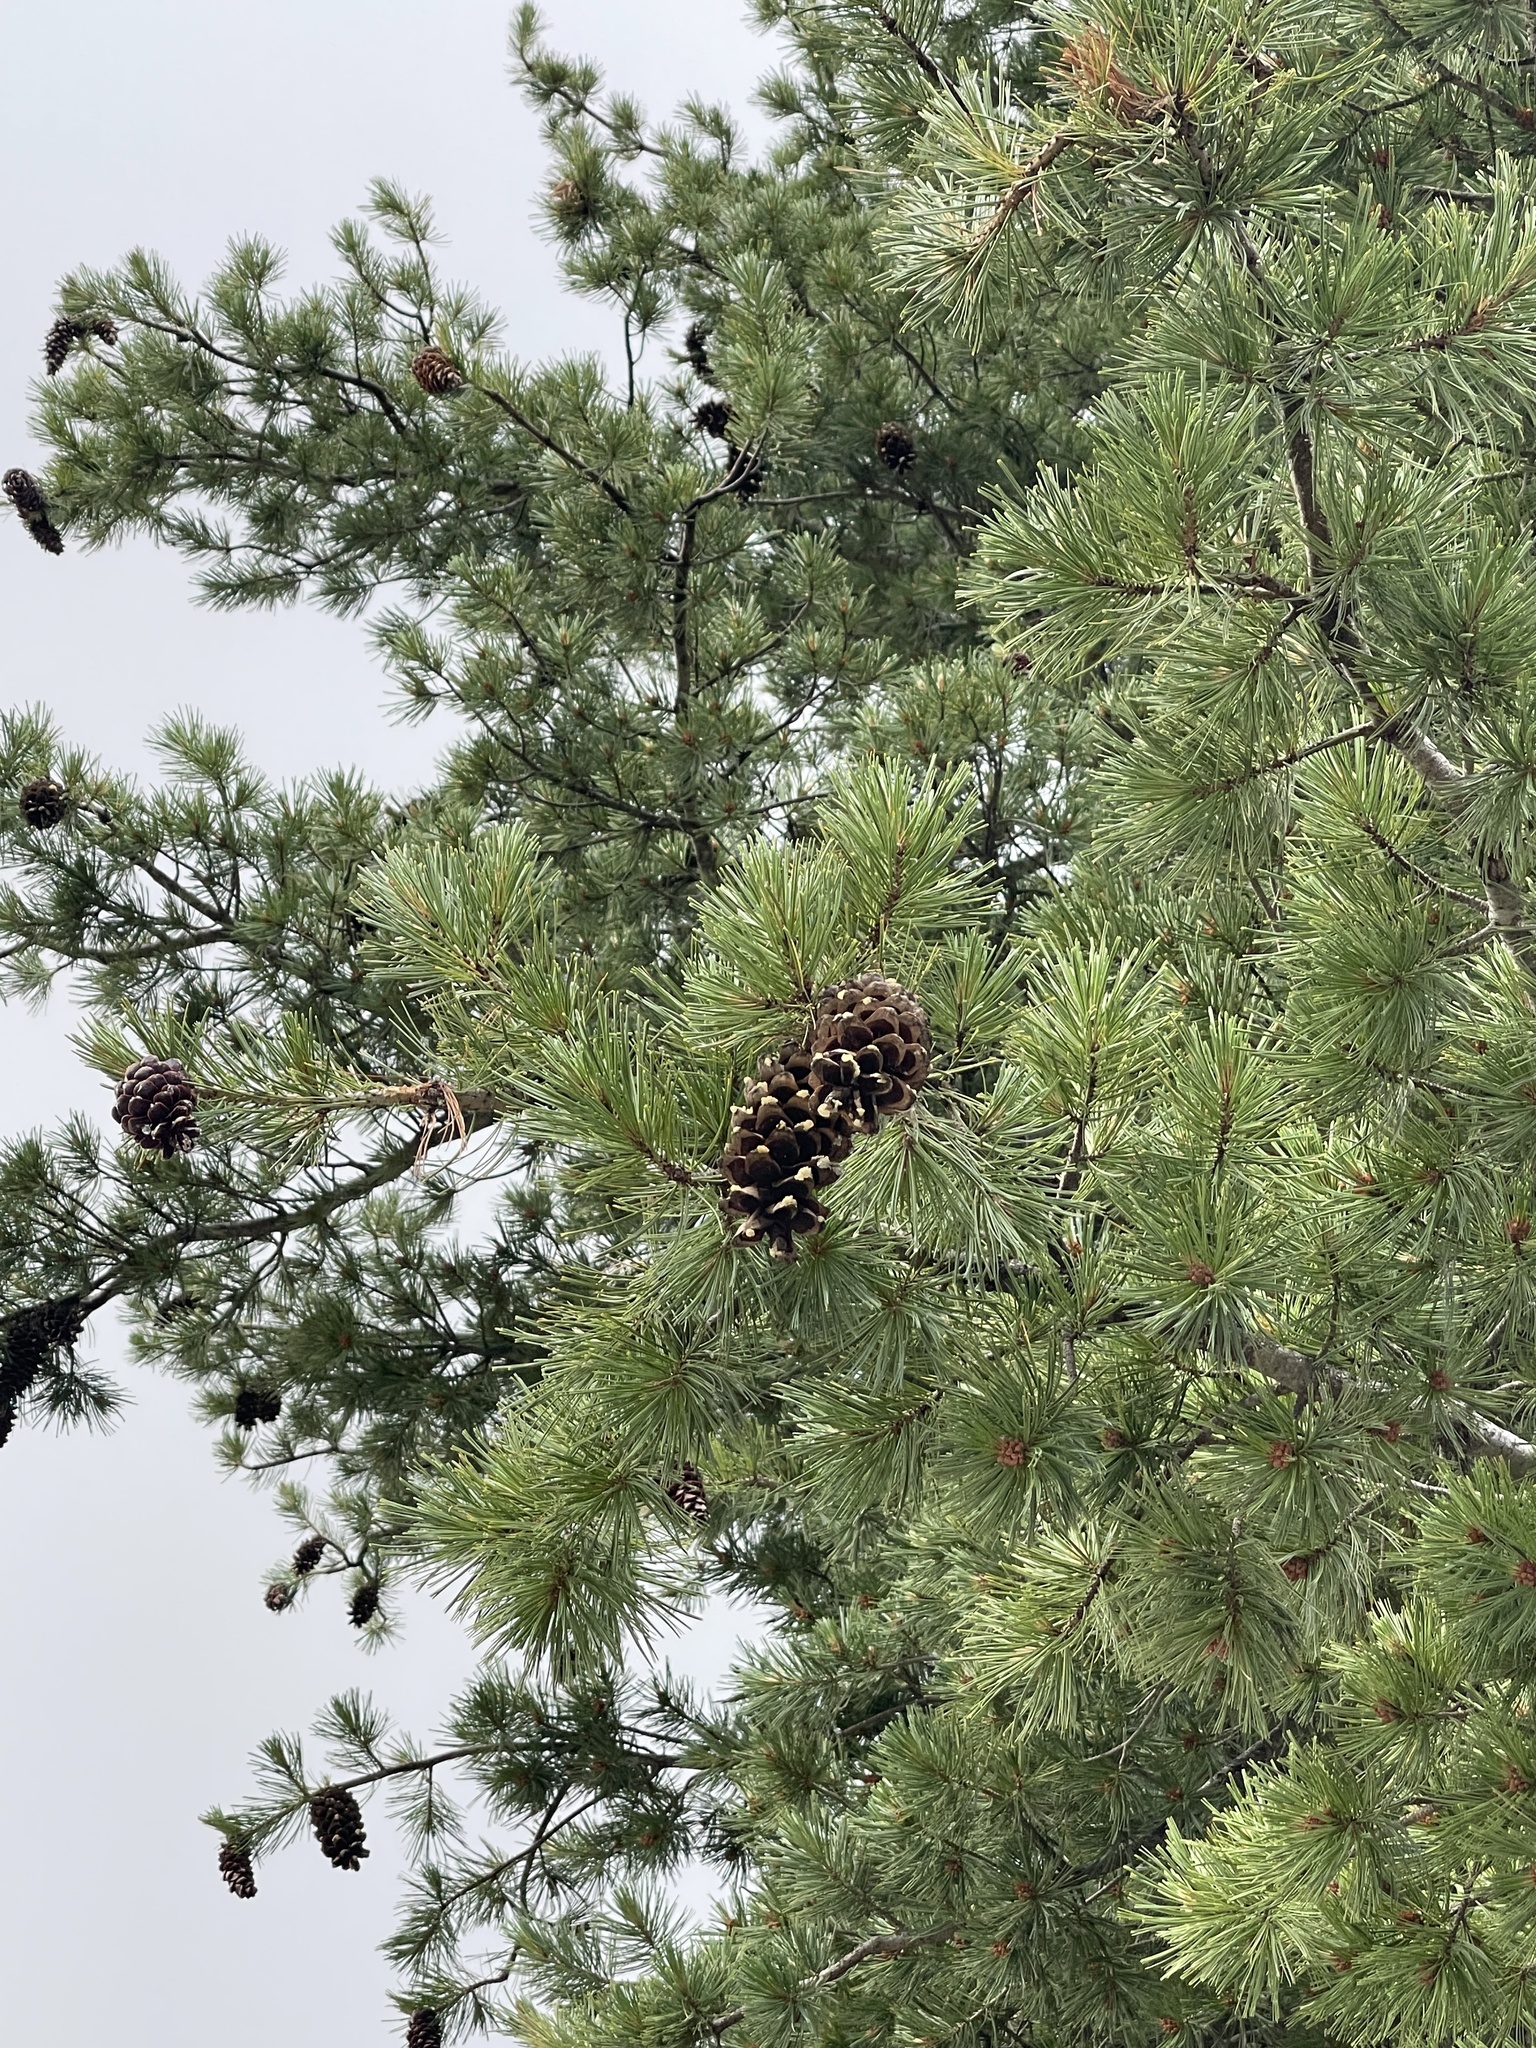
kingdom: Plantae
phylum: Tracheophyta
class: Pinopsida
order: Pinales
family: Pinaceae
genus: Pinus
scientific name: Pinus strobiformis
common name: Southwestern white pine
